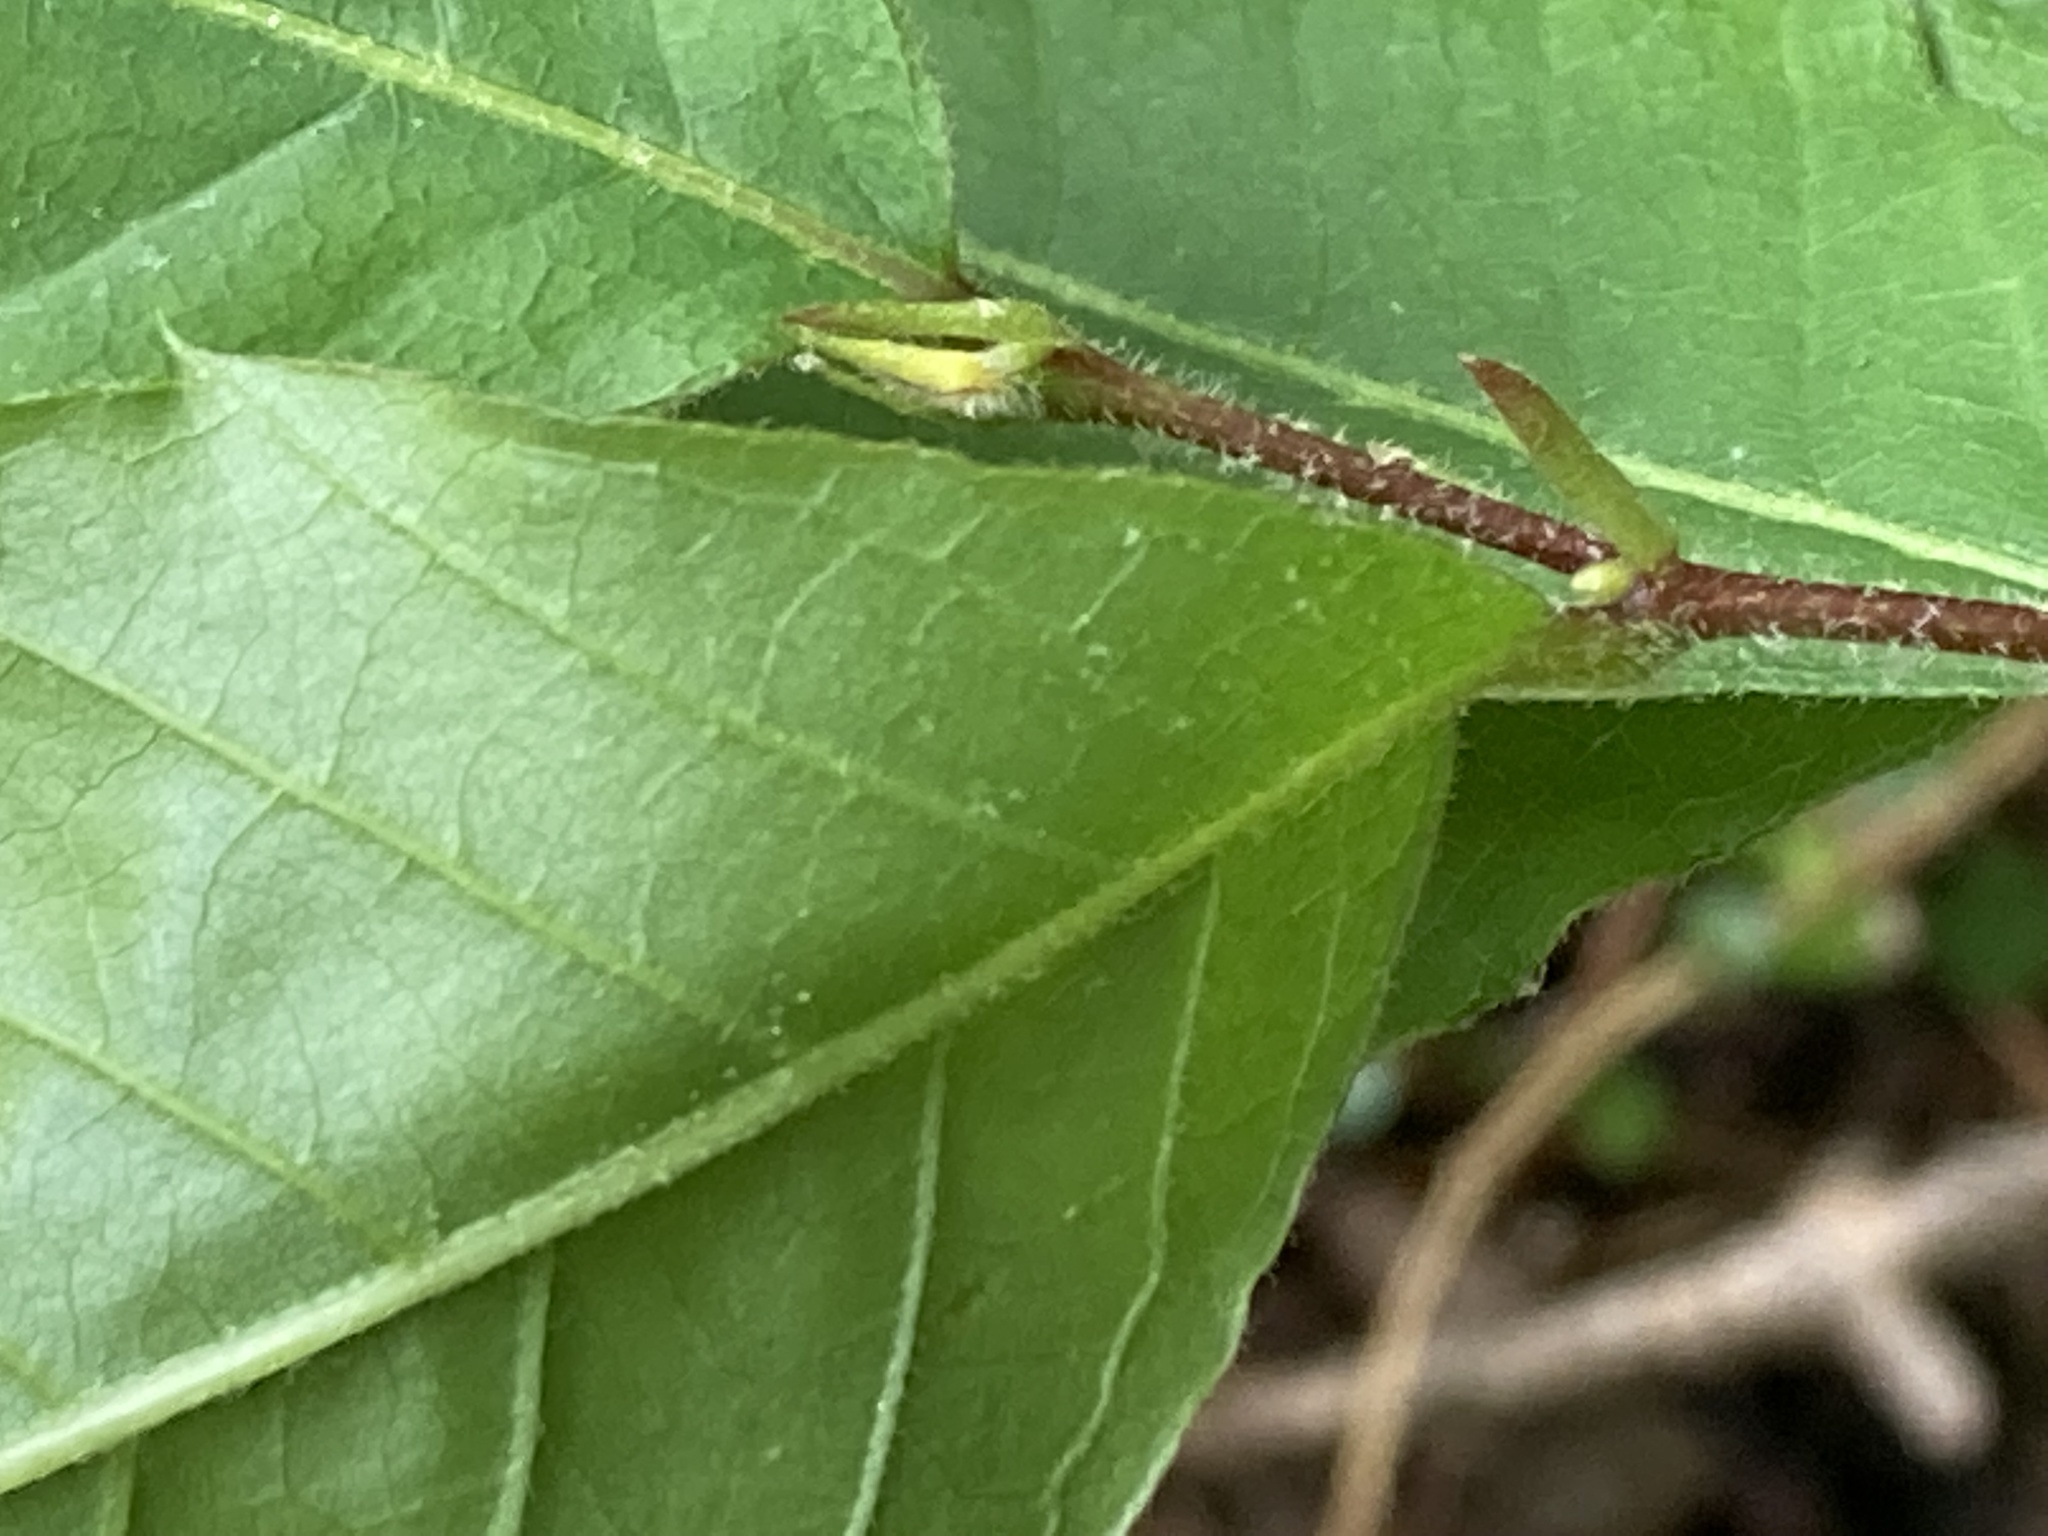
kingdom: Plantae
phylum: Tracheophyta
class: Magnoliopsida
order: Fagales
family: Fagaceae
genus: Castanea
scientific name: Castanea pumila
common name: Chinkapin
